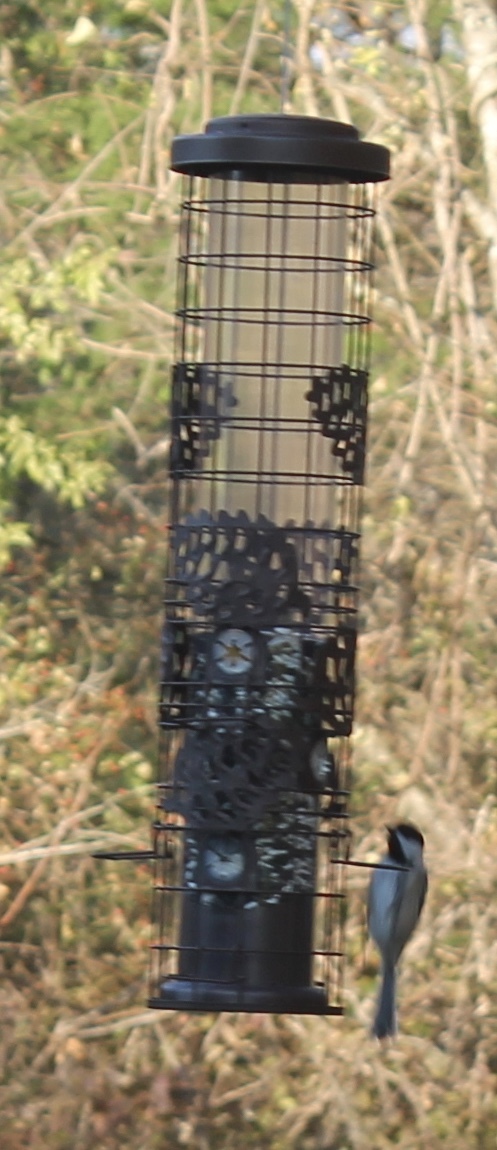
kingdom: Animalia
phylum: Chordata
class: Aves
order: Passeriformes
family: Paridae
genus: Poecile
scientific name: Poecile atricapillus
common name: Black-capped chickadee
